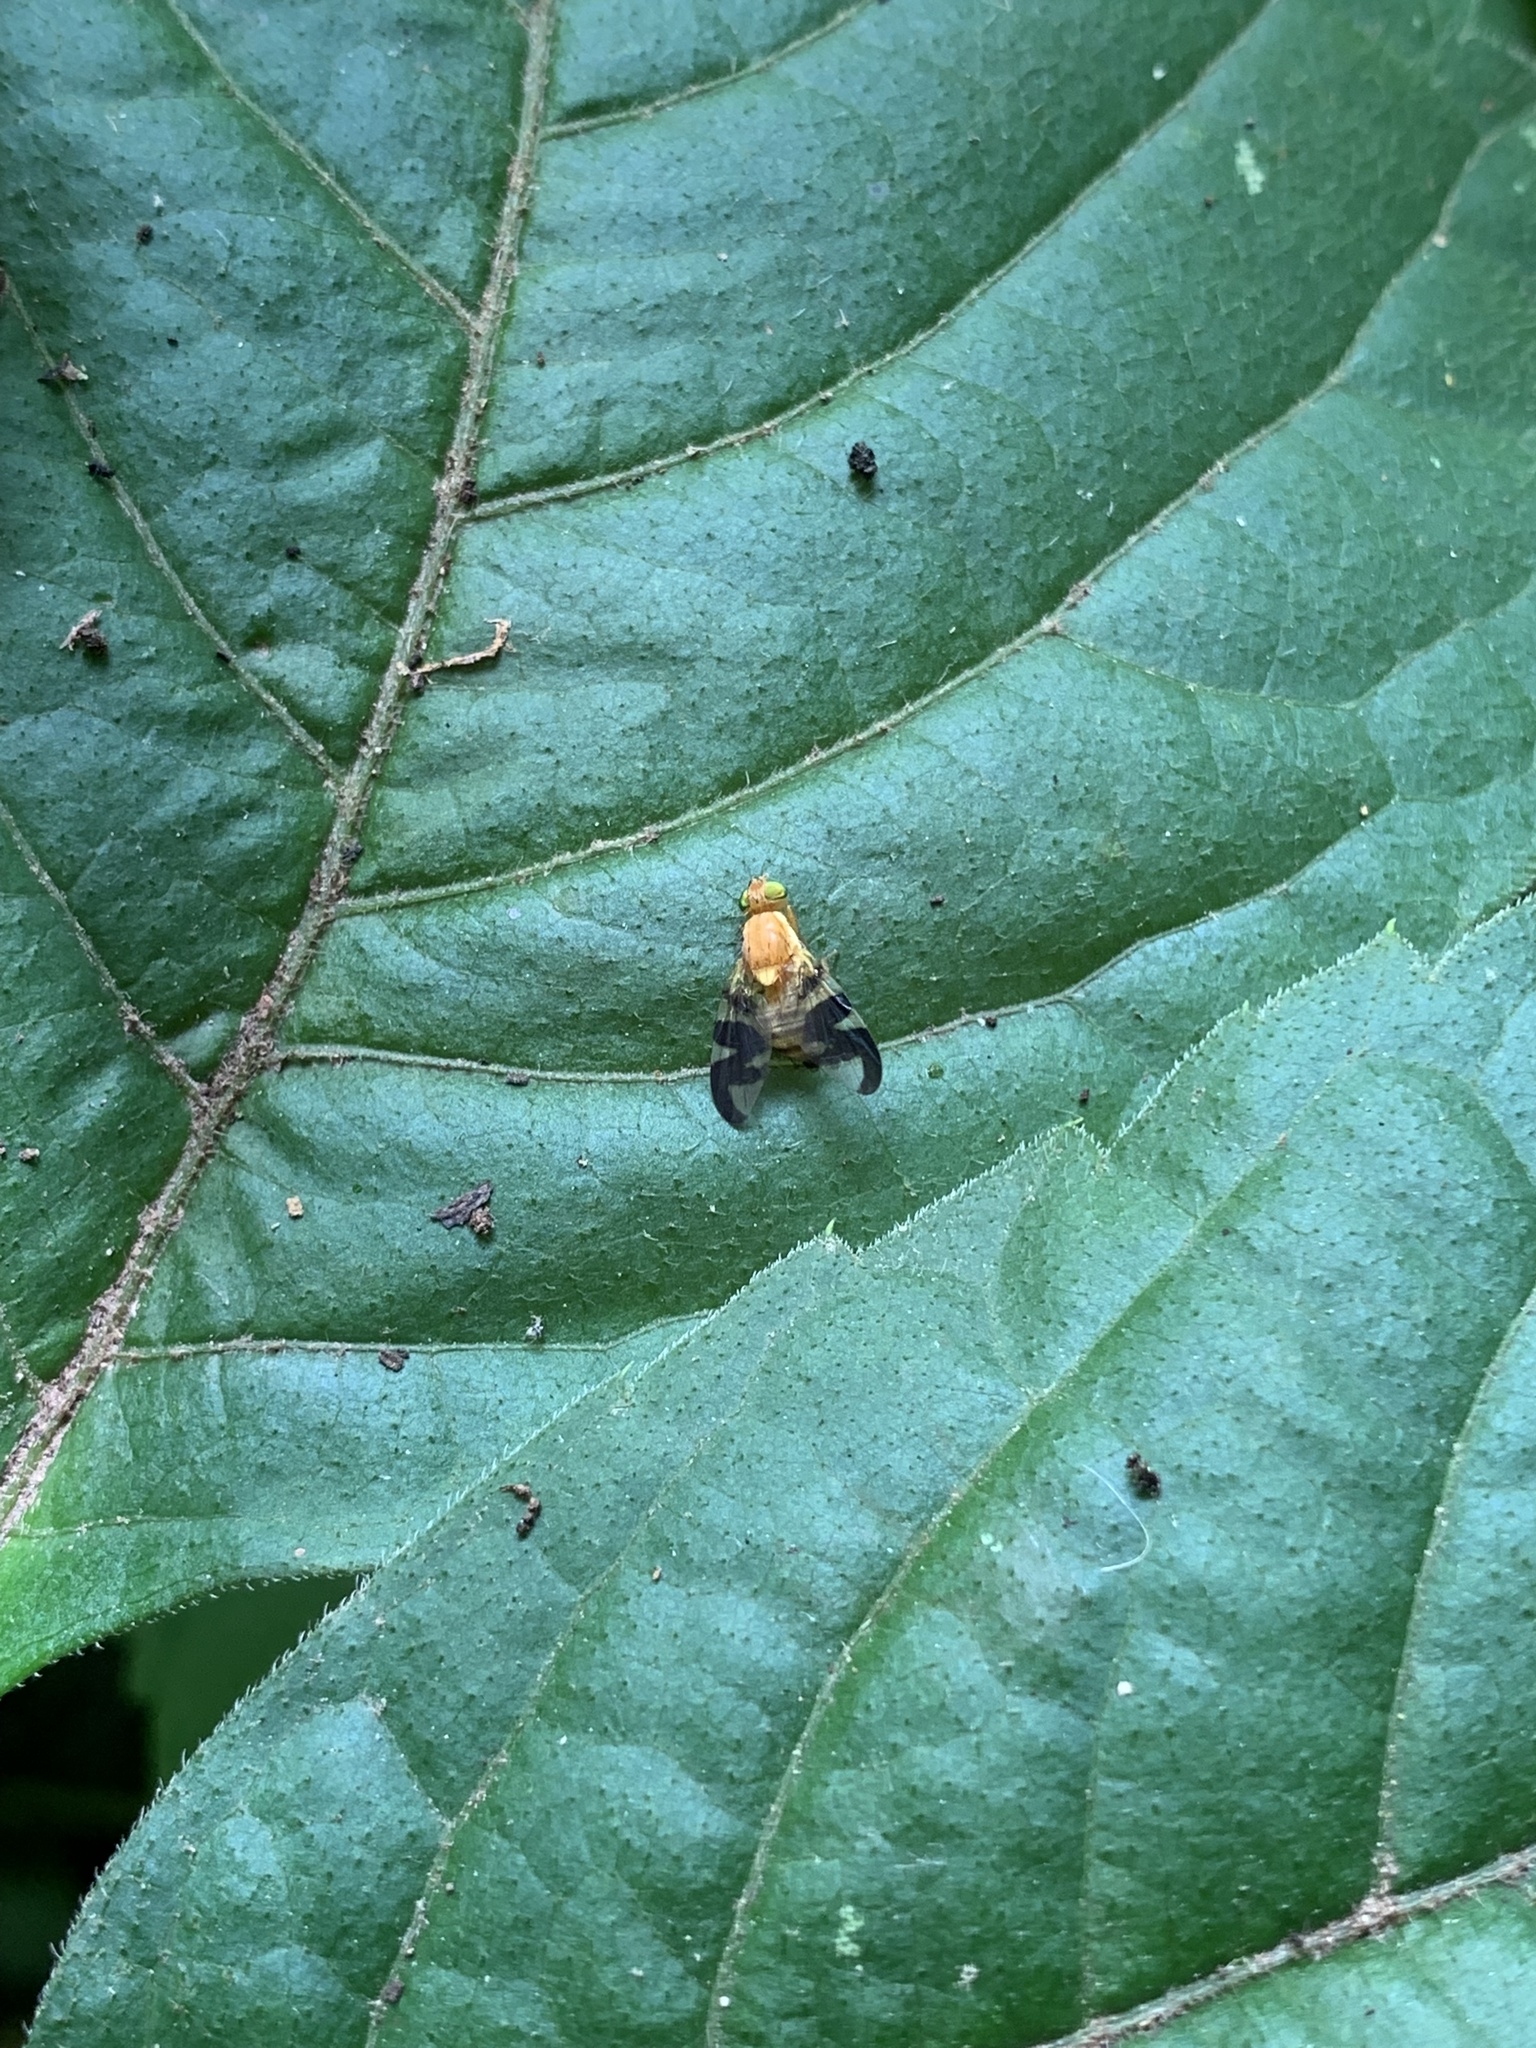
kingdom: Animalia
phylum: Arthropoda
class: Insecta
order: Diptera
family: Tephritidae
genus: Rhagoletis
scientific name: Rhagoletis suavis
